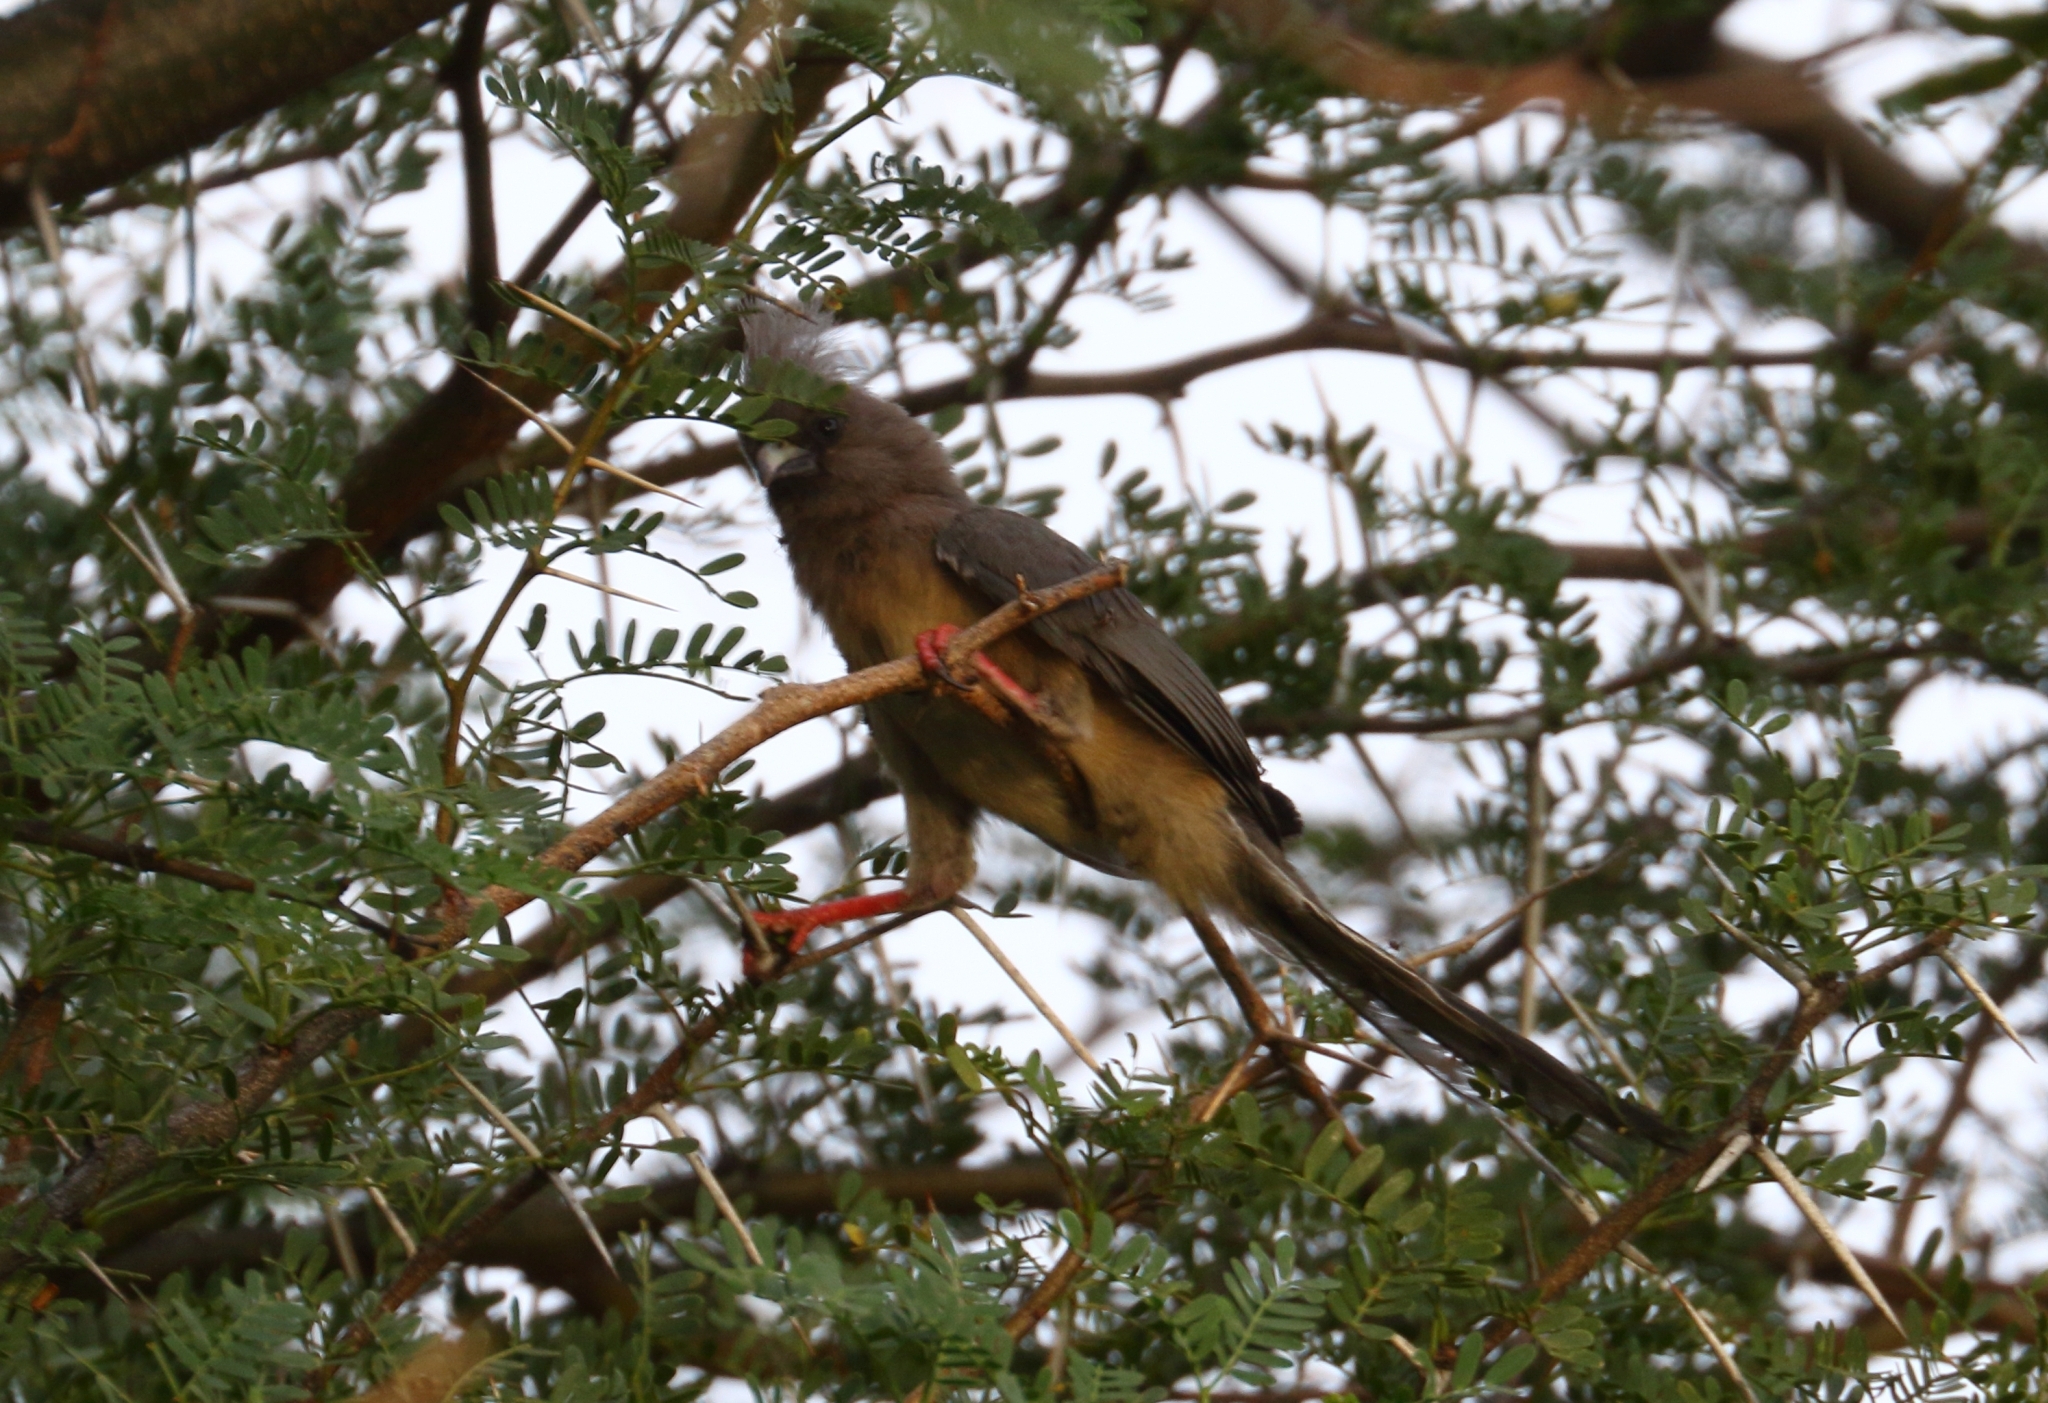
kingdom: Animalia
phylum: Chordata
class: Aves
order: Coliiformes
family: Coliidae
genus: Colius
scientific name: Colius colius
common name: White-backed mousebird
